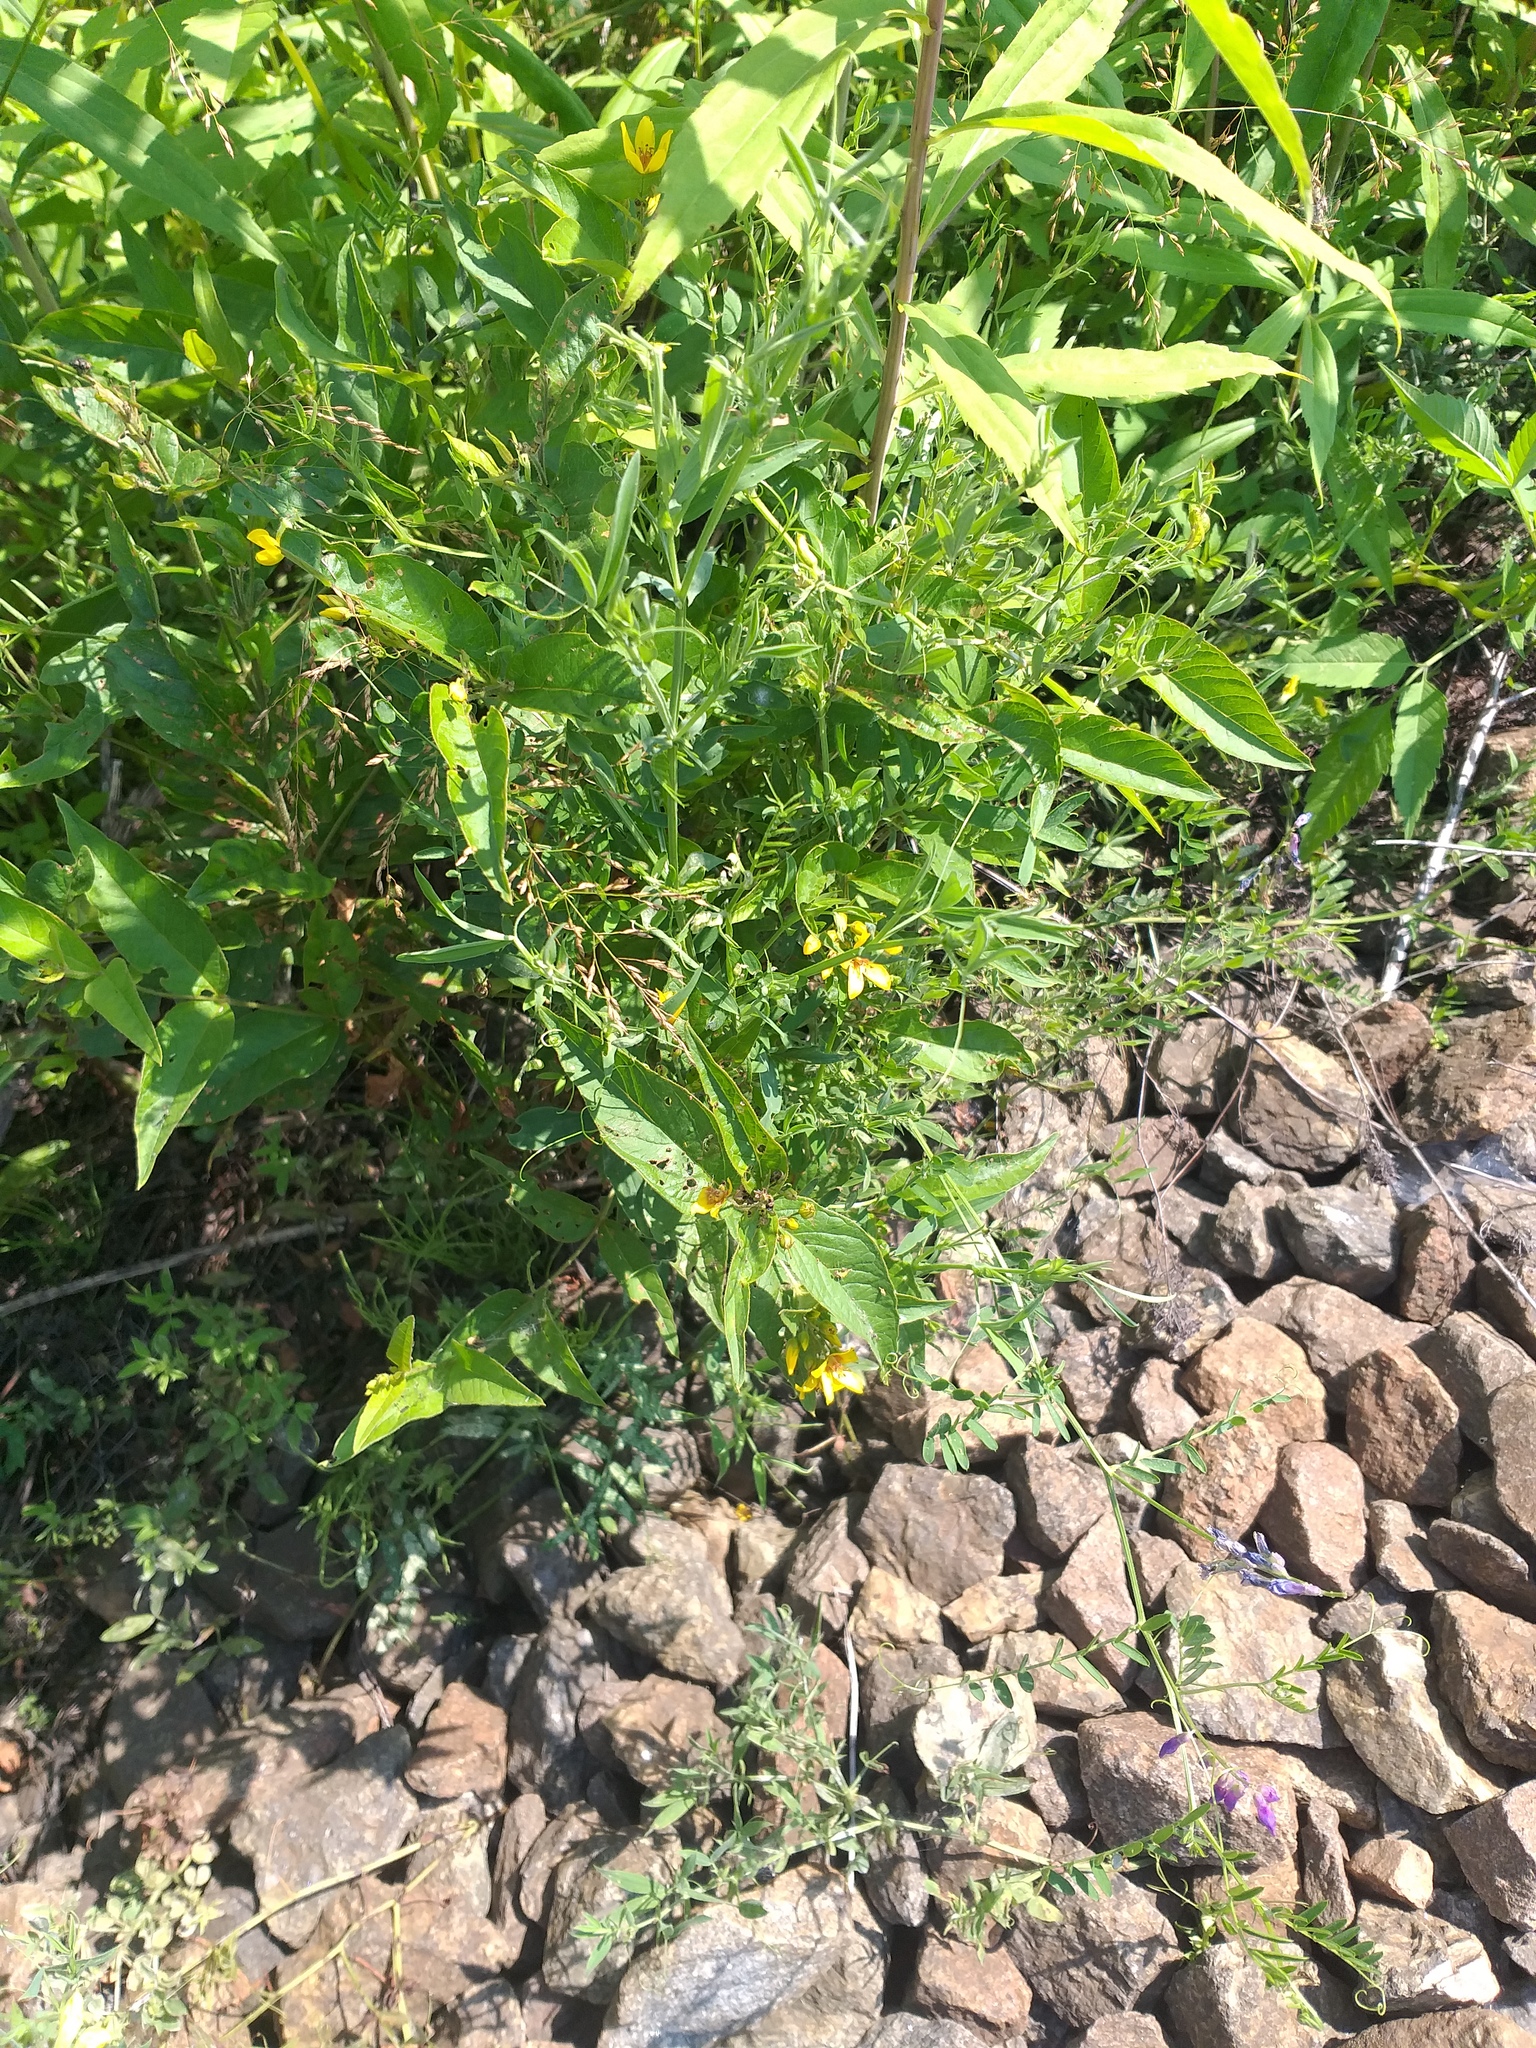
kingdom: Plantae
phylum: Tracheophyta
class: Magnoliopsida
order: Ericales
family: Primulaceae
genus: Lysimachia
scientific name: Lysimachia vulgaris
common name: Yellow loosestrife
